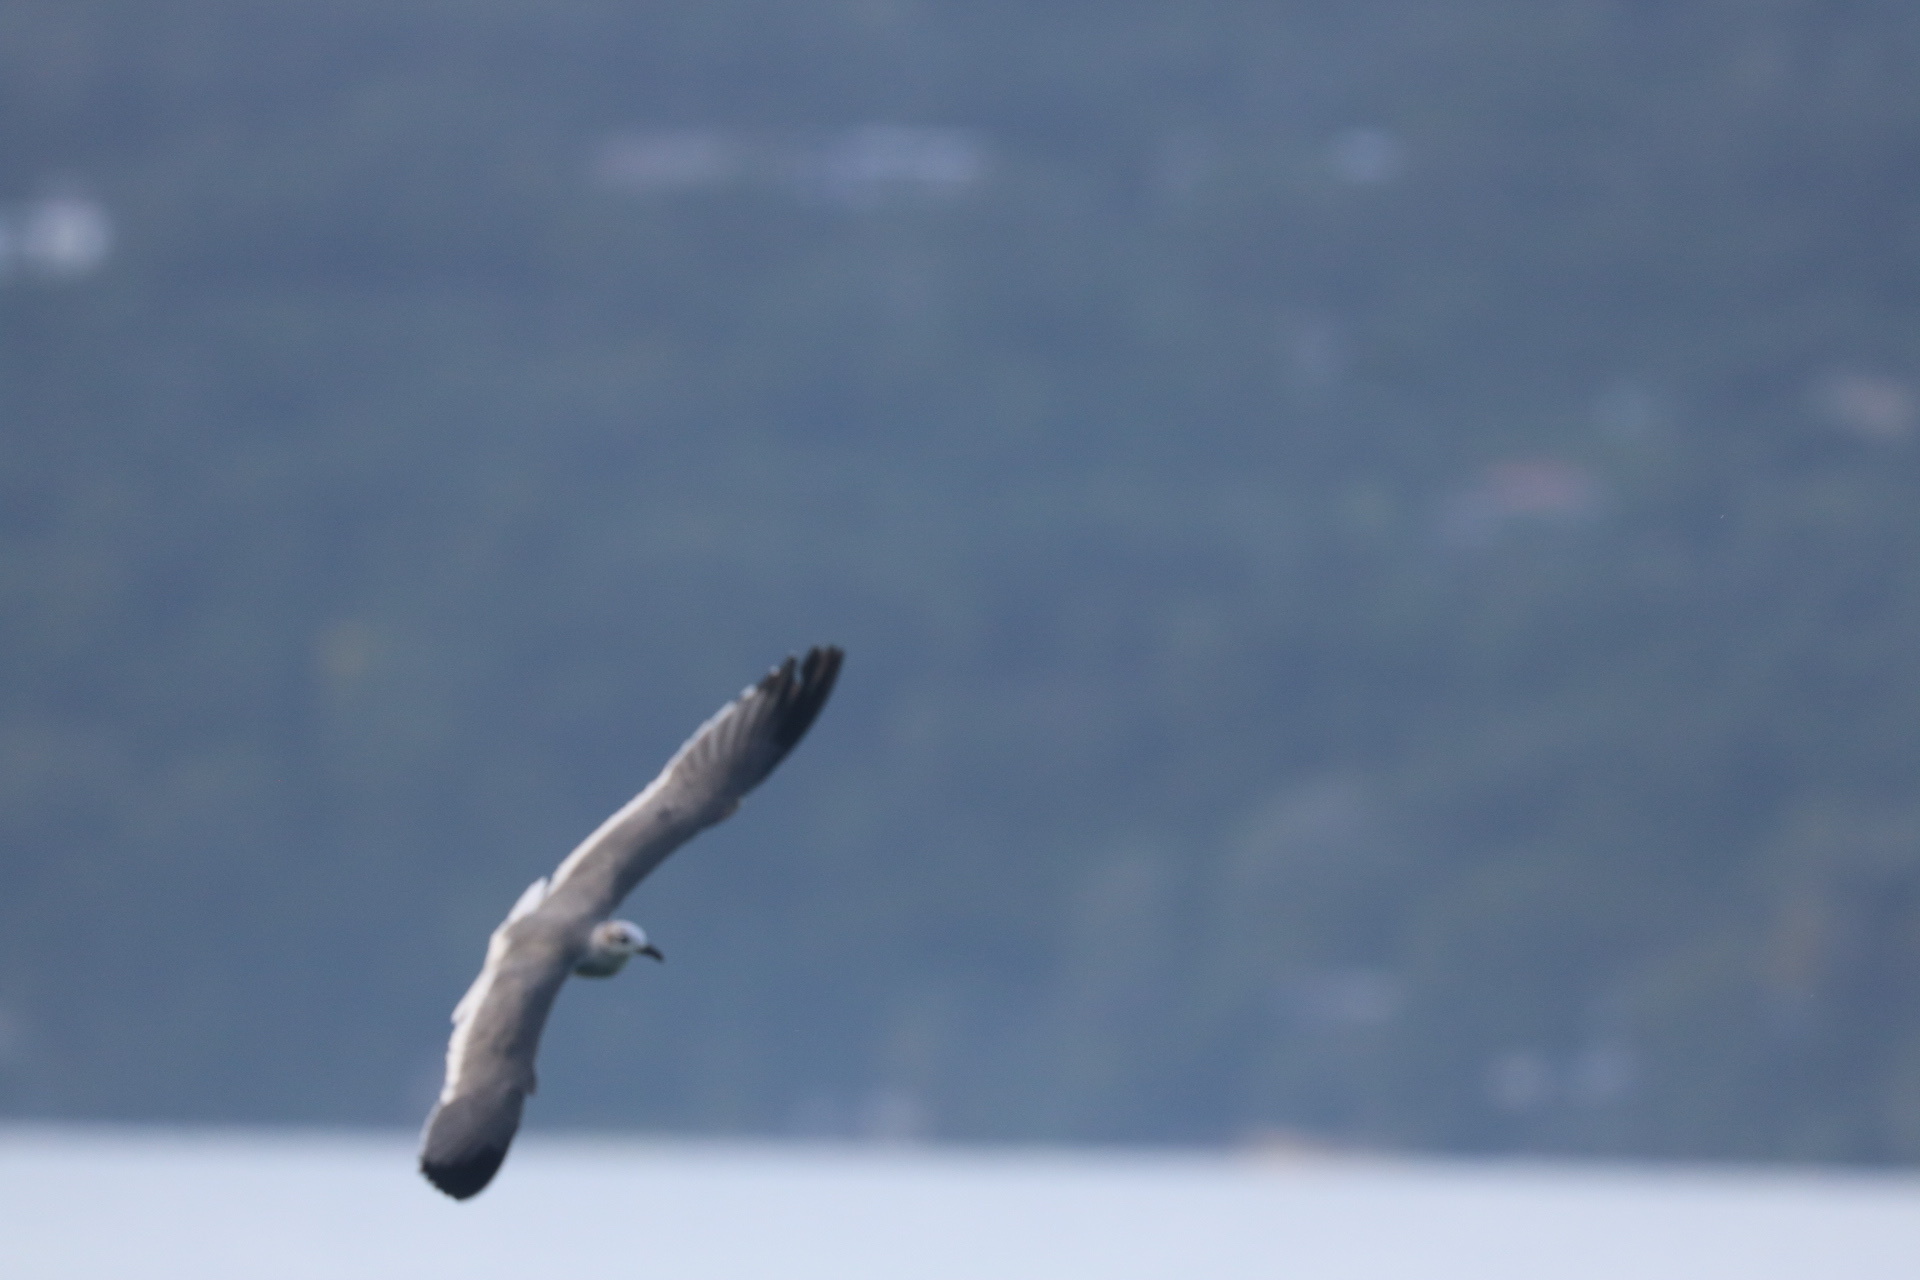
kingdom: Animalia
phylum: Chordata
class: Aves
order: Charadriiformes
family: Laridae
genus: Leucophaeus
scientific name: Leucophaeus atricilla
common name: Laughing gull
